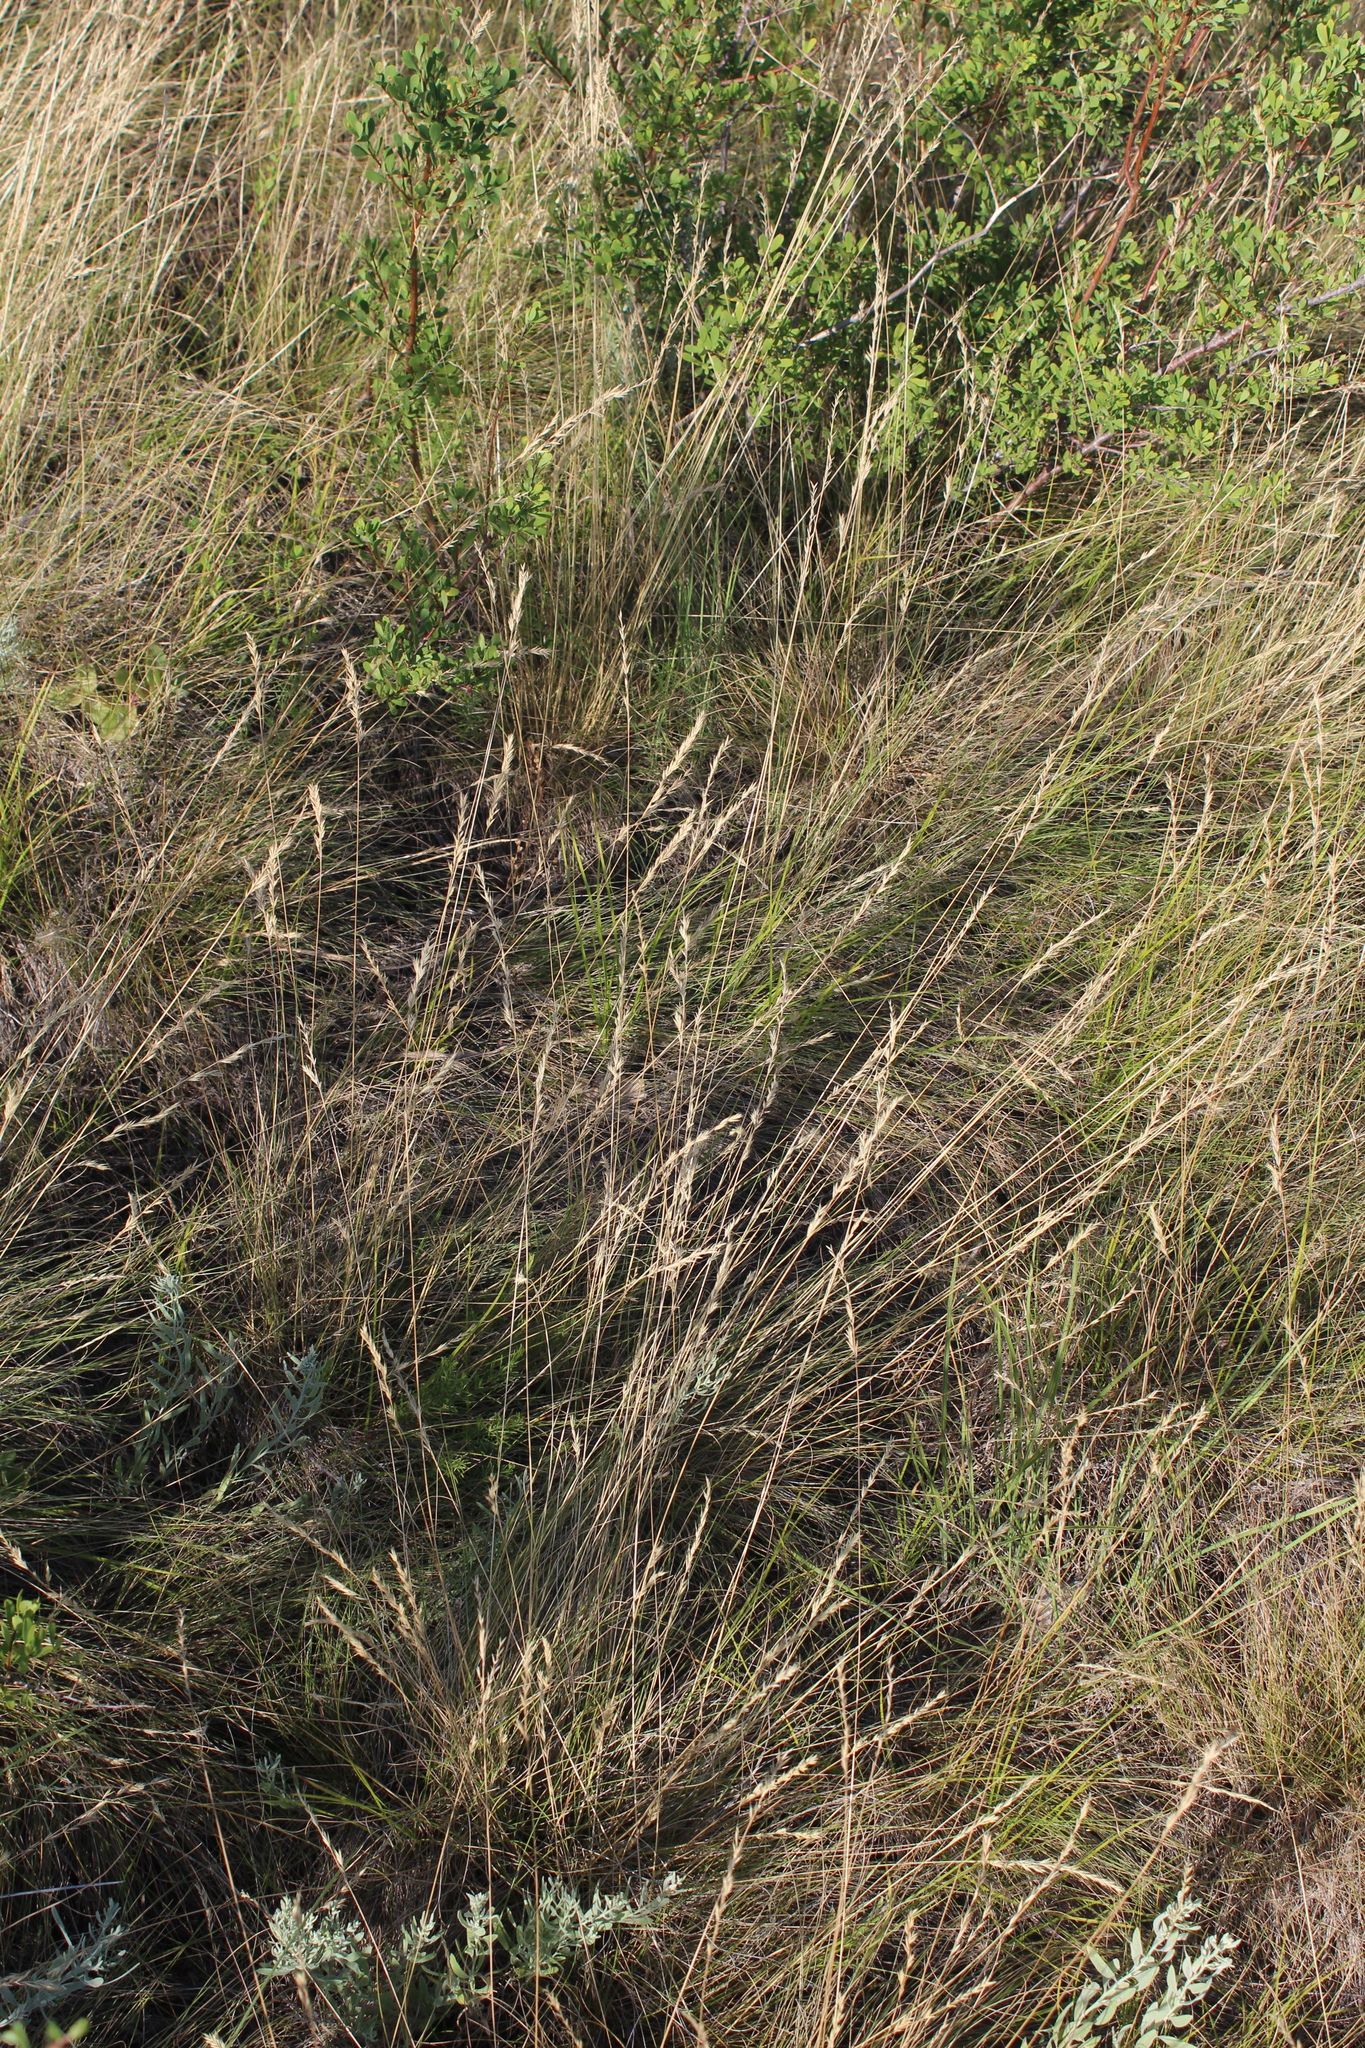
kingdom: Plantae
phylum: Tracheophyta
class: Liliopsida
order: Poales
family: Poaceae
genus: Festuca
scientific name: Festuca valesiaca
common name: Volga fescue
